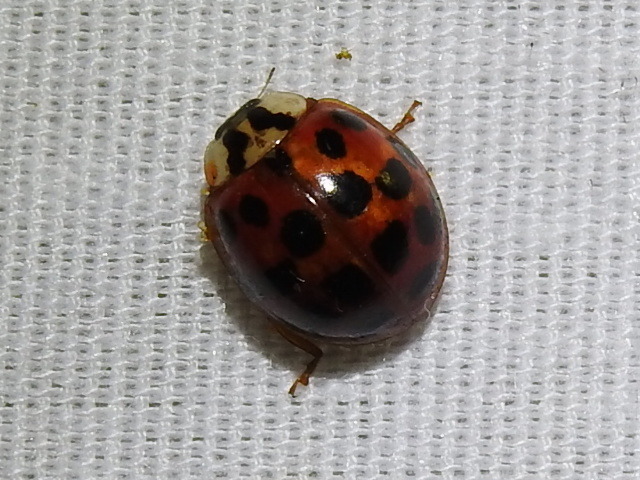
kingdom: Animalia
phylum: Arthropoda
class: Insecta
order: Coleoptera
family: Coccinellidae
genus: Harmonia
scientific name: Harmonia axyridis
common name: Harlequin ladybird
